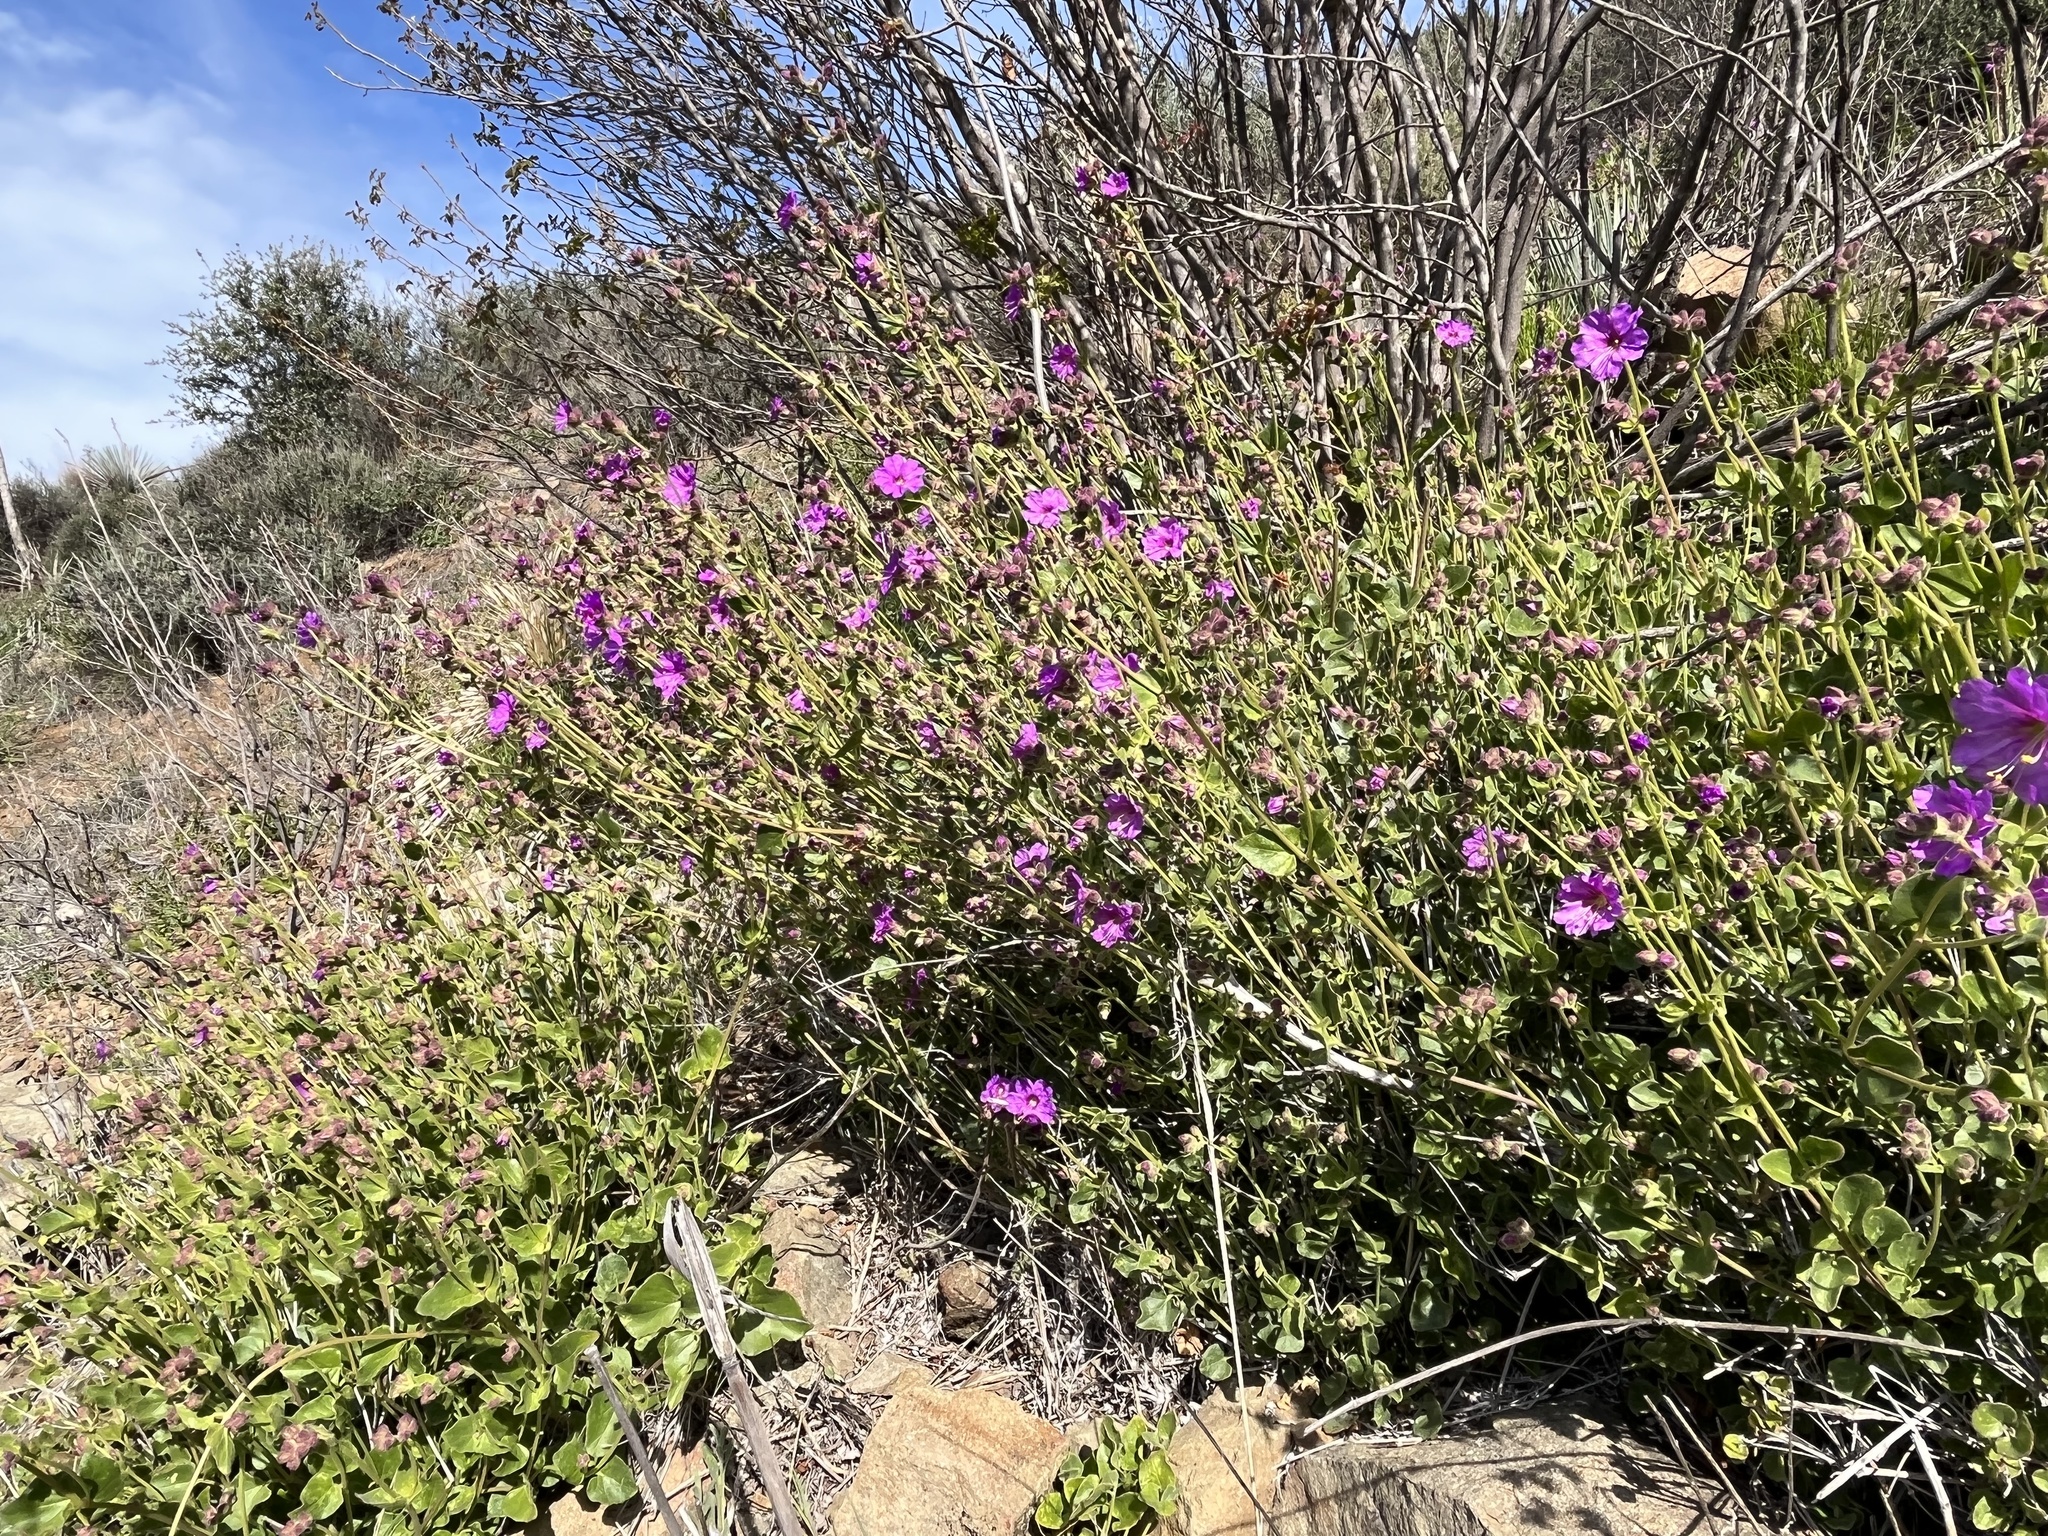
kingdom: Plantae
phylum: Tracheophyta
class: Magnoliopsida
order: Caryophyllales
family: Nyctaginaceae
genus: Mirabilis
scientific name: Mirabilis laevis
